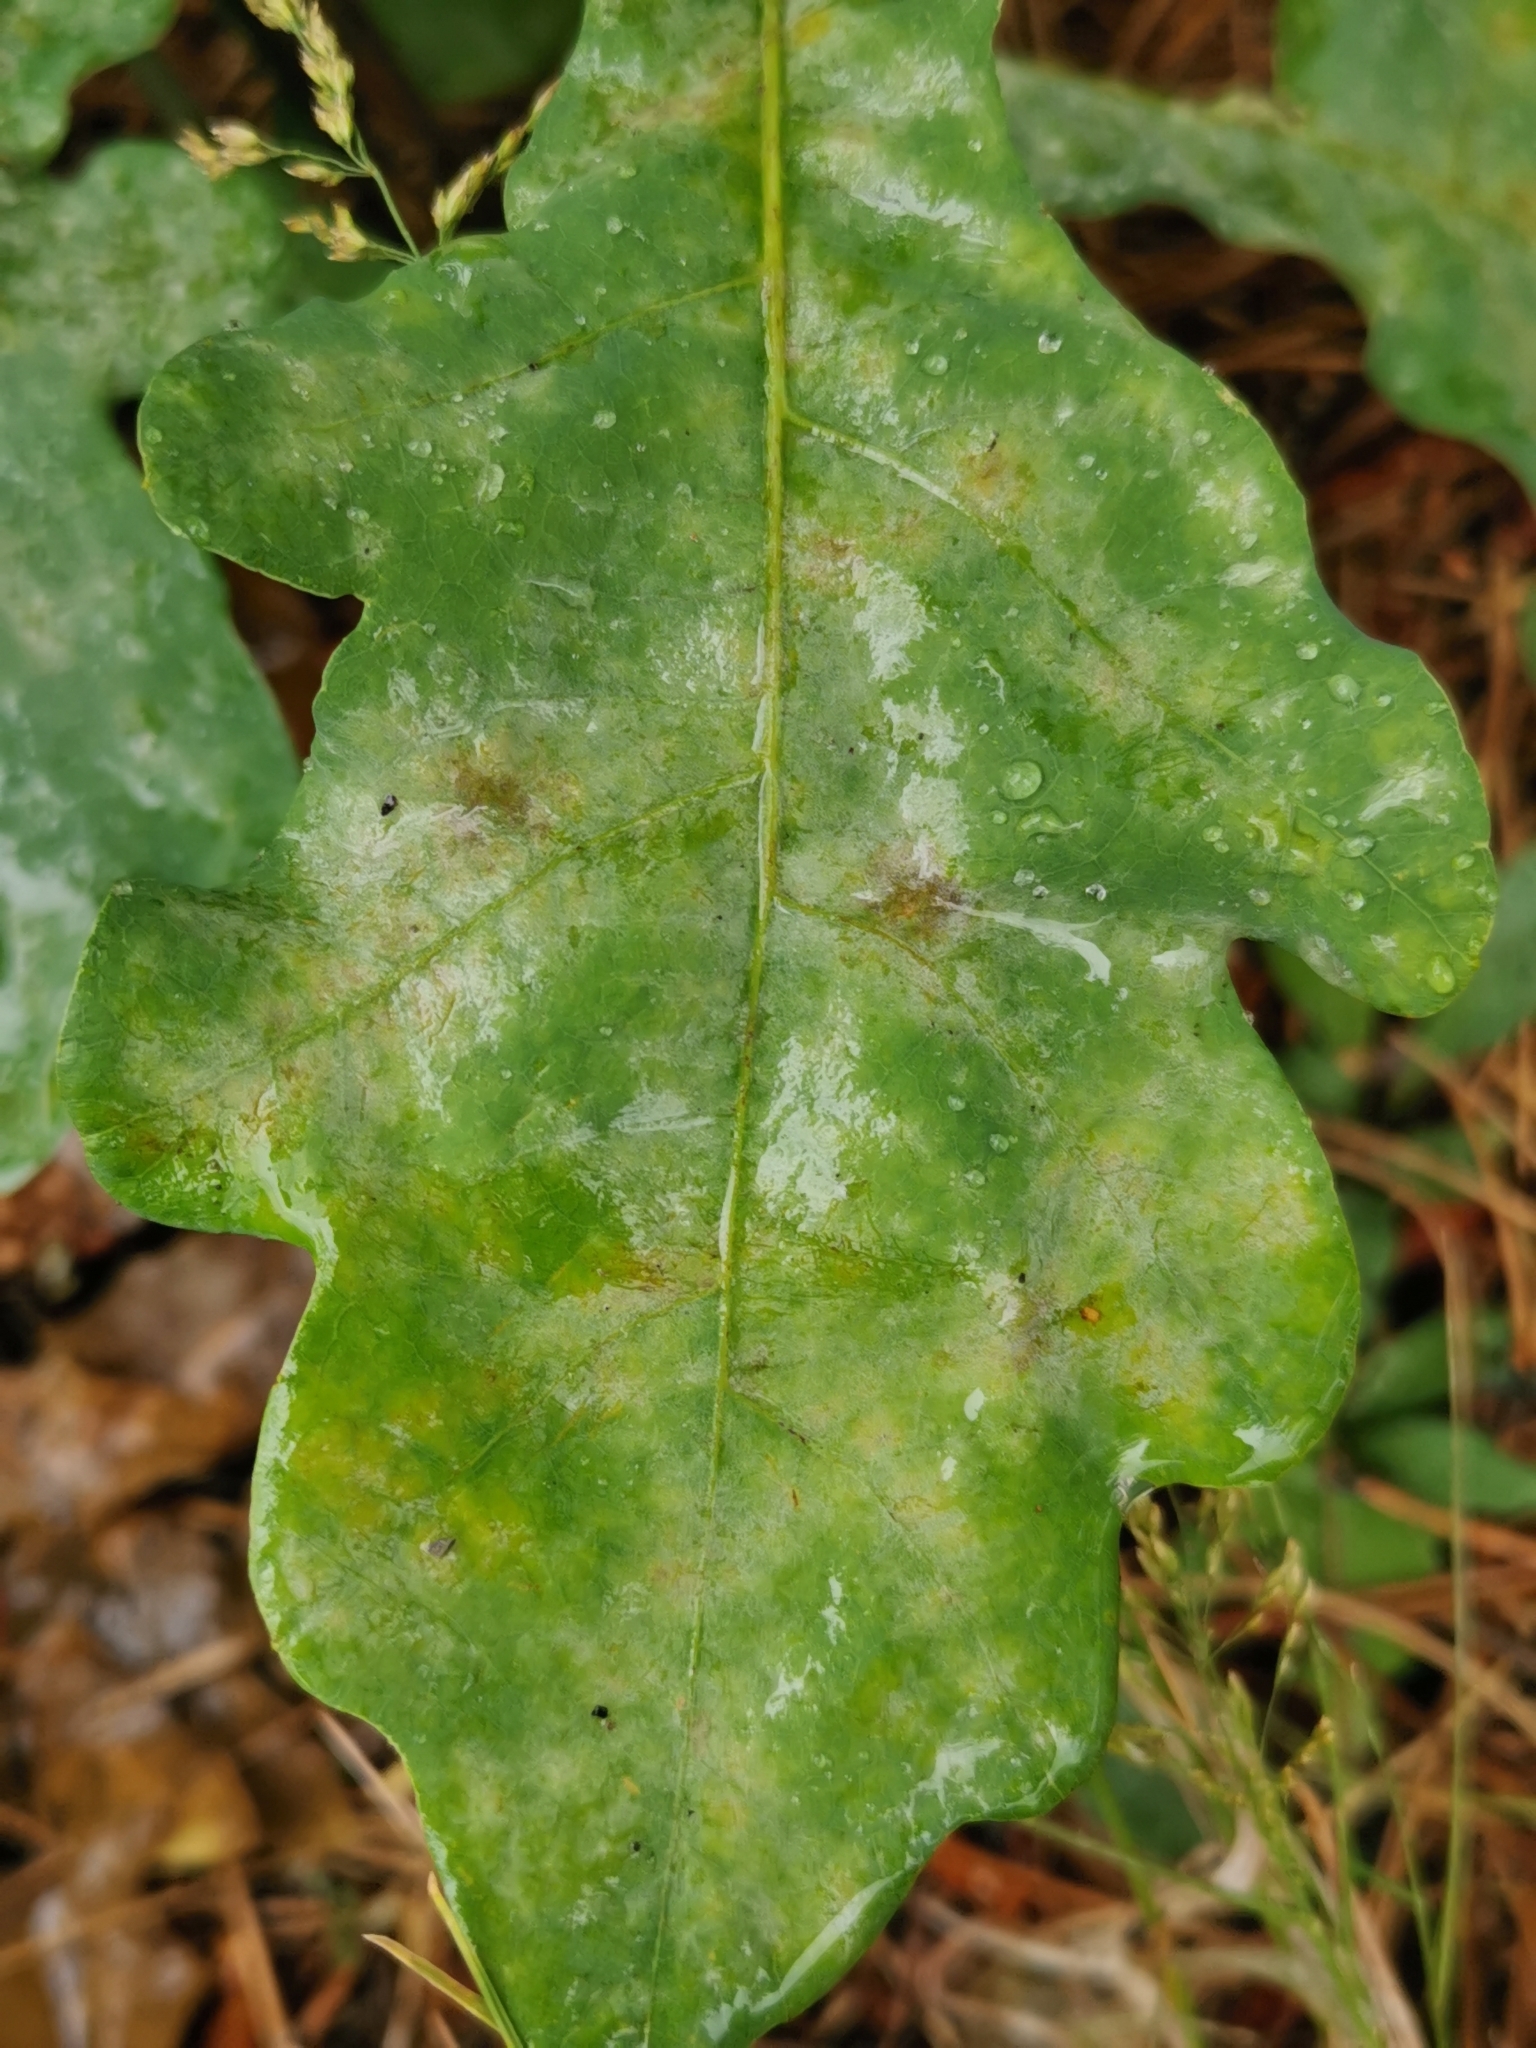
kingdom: Fungi
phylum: Ascomycota
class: Leotiomycetes
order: Helotiales
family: Erysiphaceae
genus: Erysiphe
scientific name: Erysiphe
